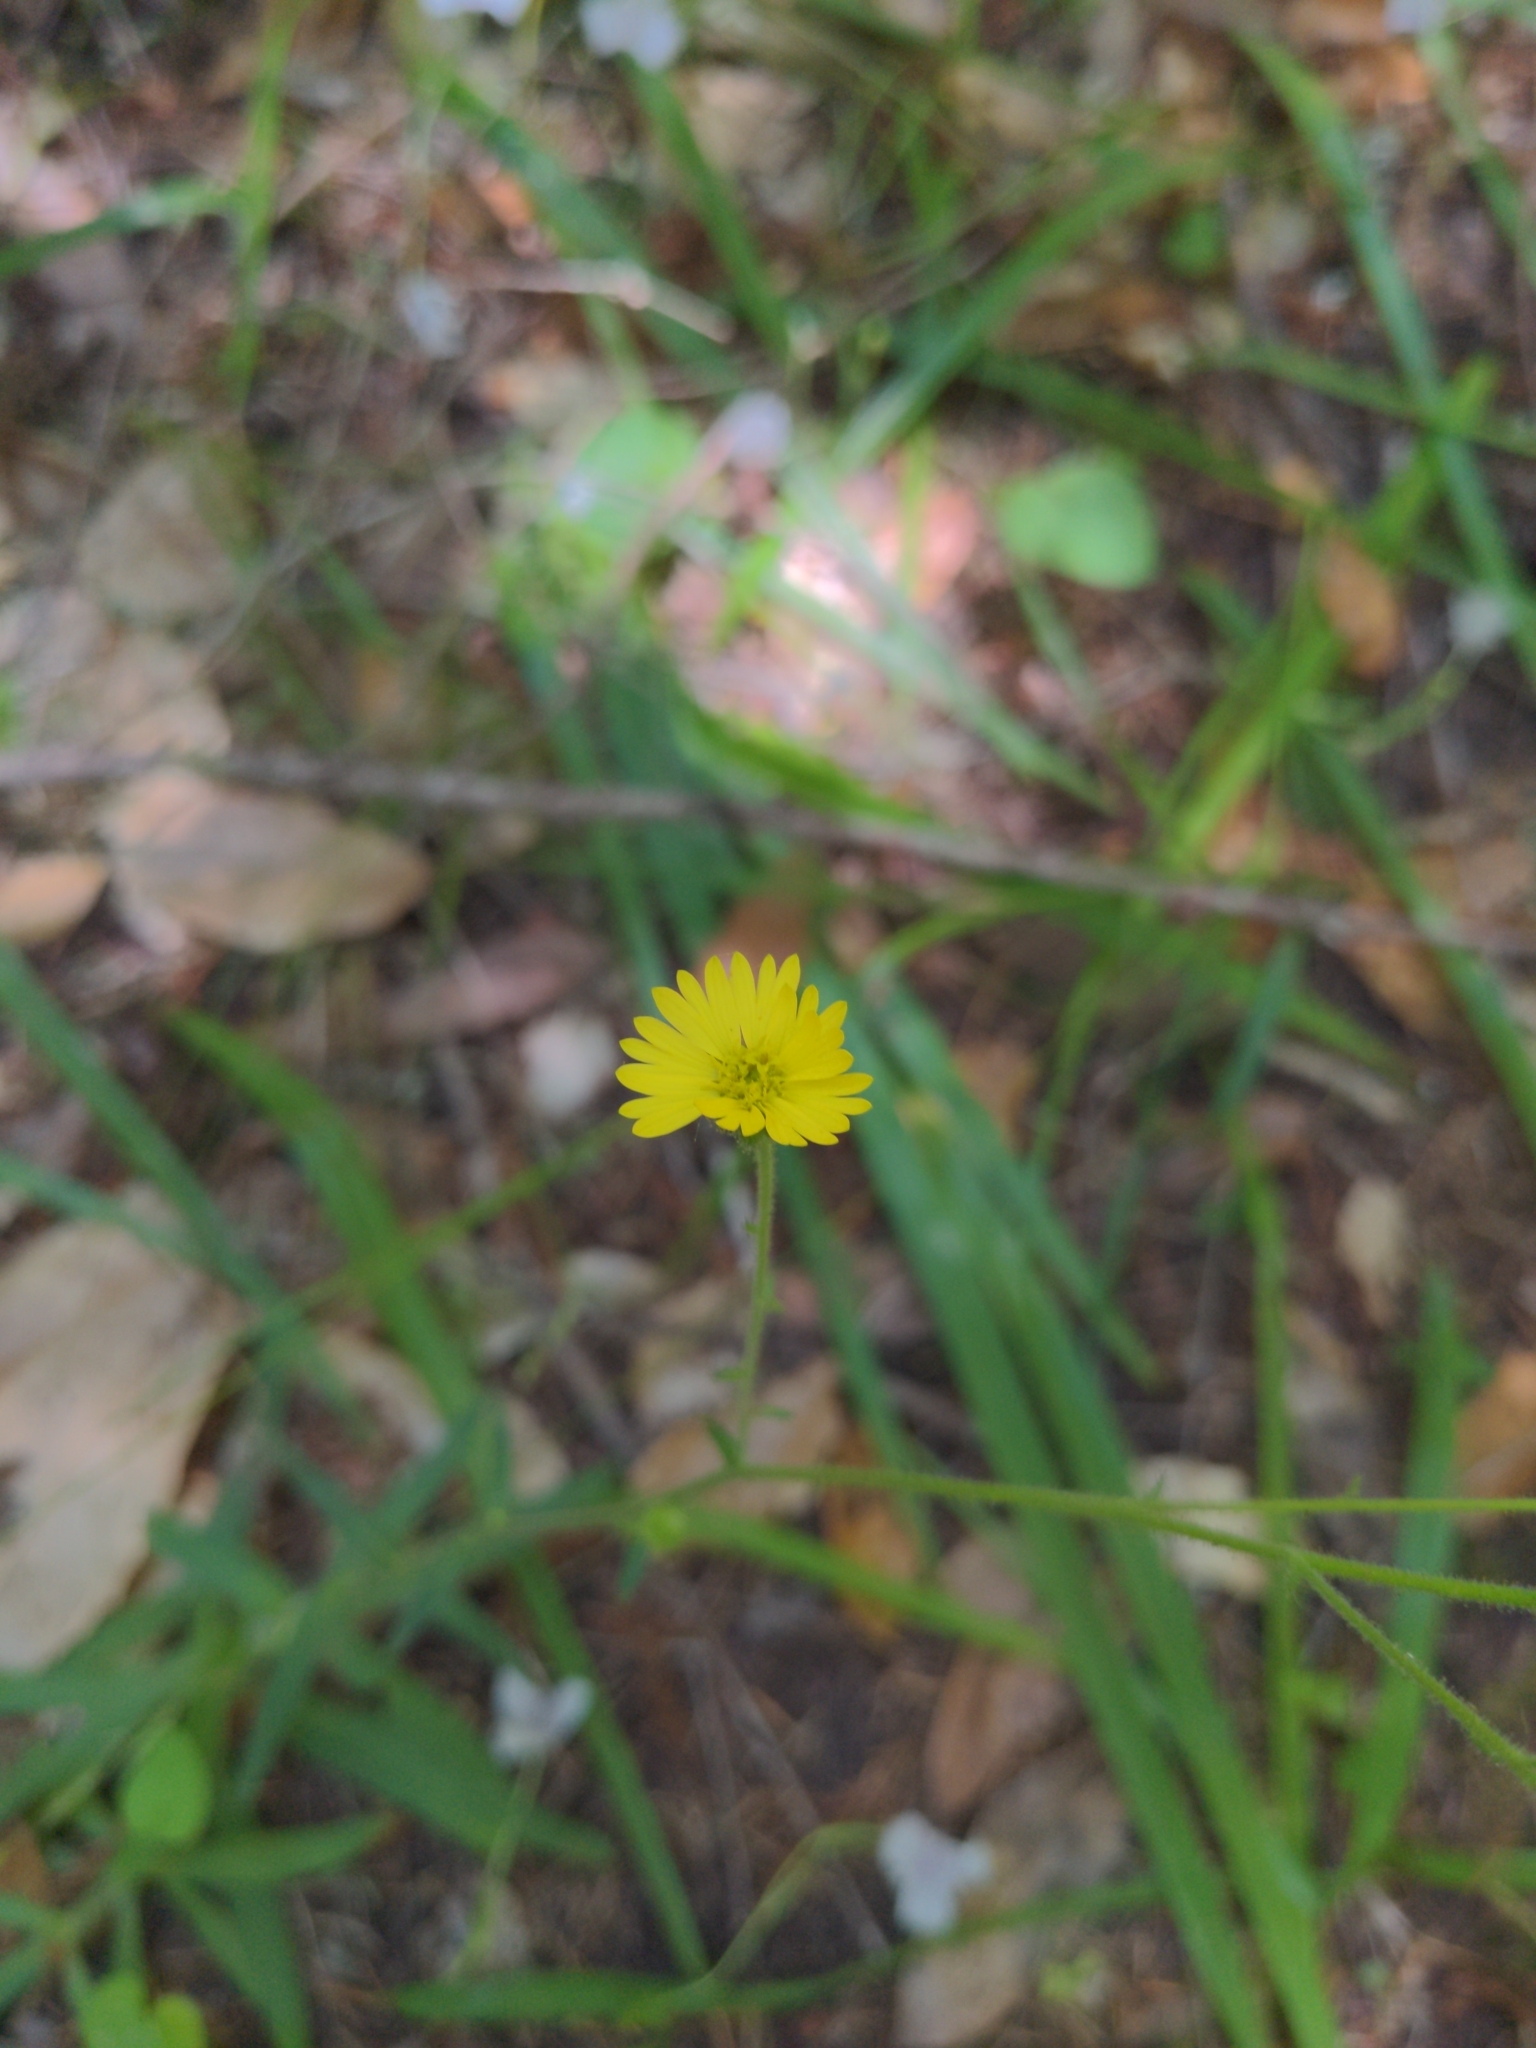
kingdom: Plantae
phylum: Tracheophyta
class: Magnoliopsida
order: Asterales
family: Asteraceae
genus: Anisocarpus
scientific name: Anisocarpus madioides
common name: Woodland madia
